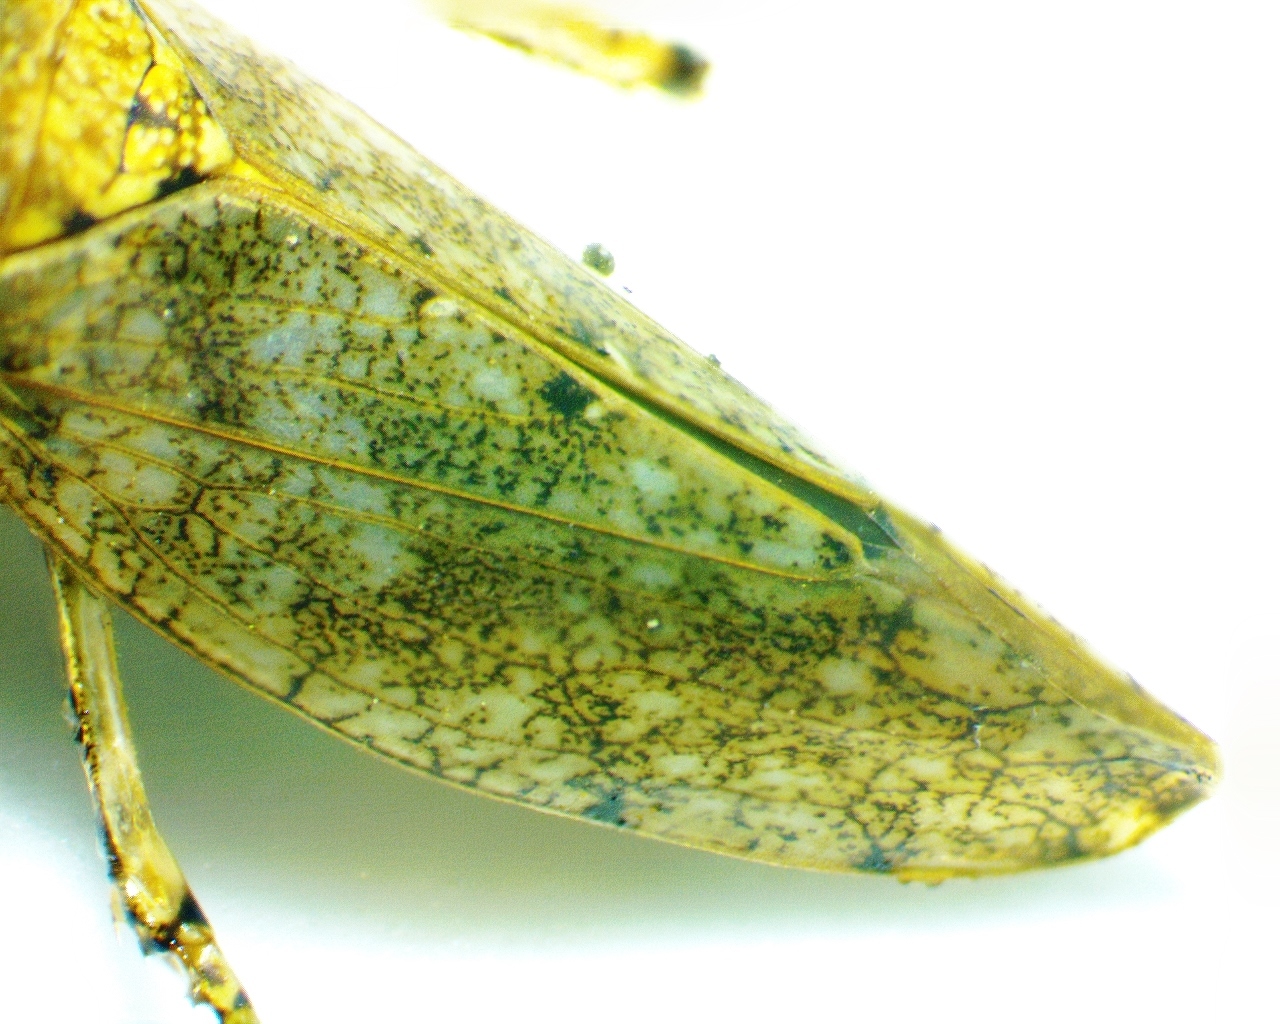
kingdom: Animalia
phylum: Arthropoda
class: Insecta
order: Hemiptera
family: Cicadellidae
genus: Paraphlepsius
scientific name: Paraphlepsius tennessus
